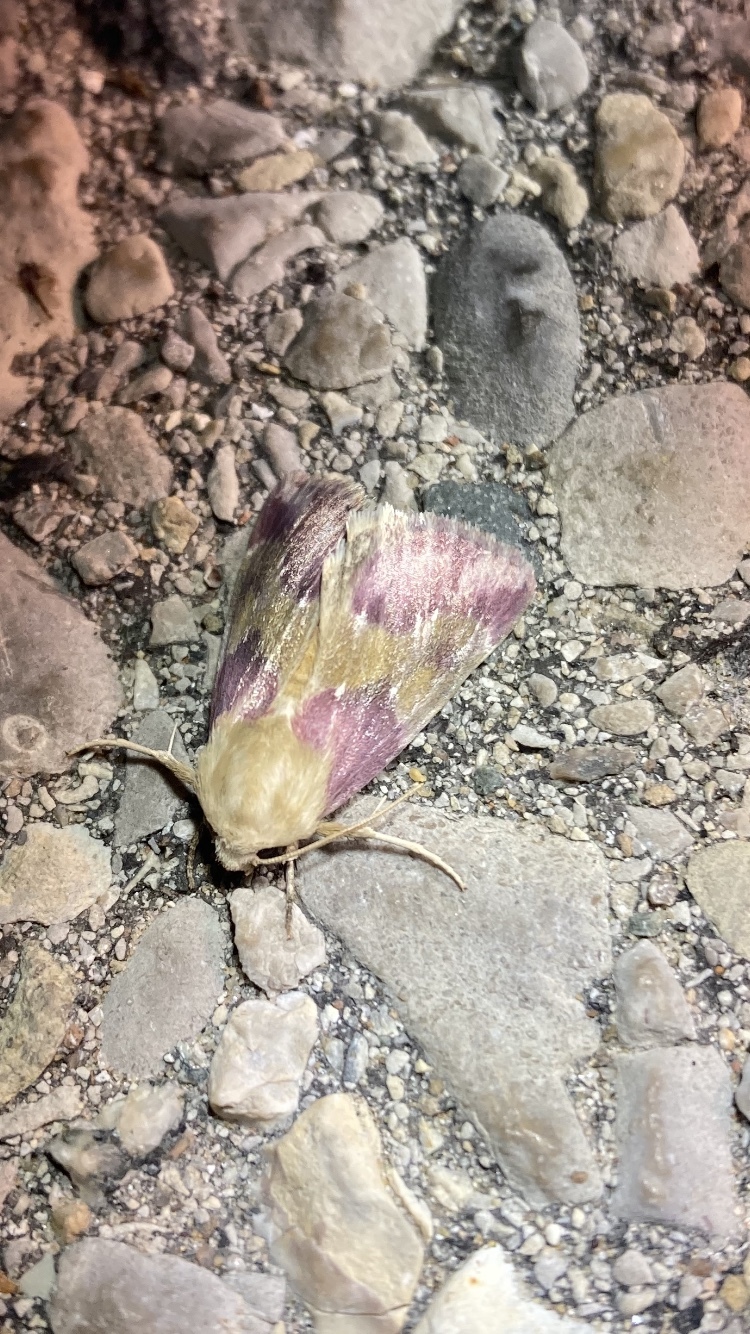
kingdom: Animalia
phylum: Arthropoda
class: Insecta
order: Lepidoptera
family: Noctuidae
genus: Schinia
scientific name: Schinia sanguinea
